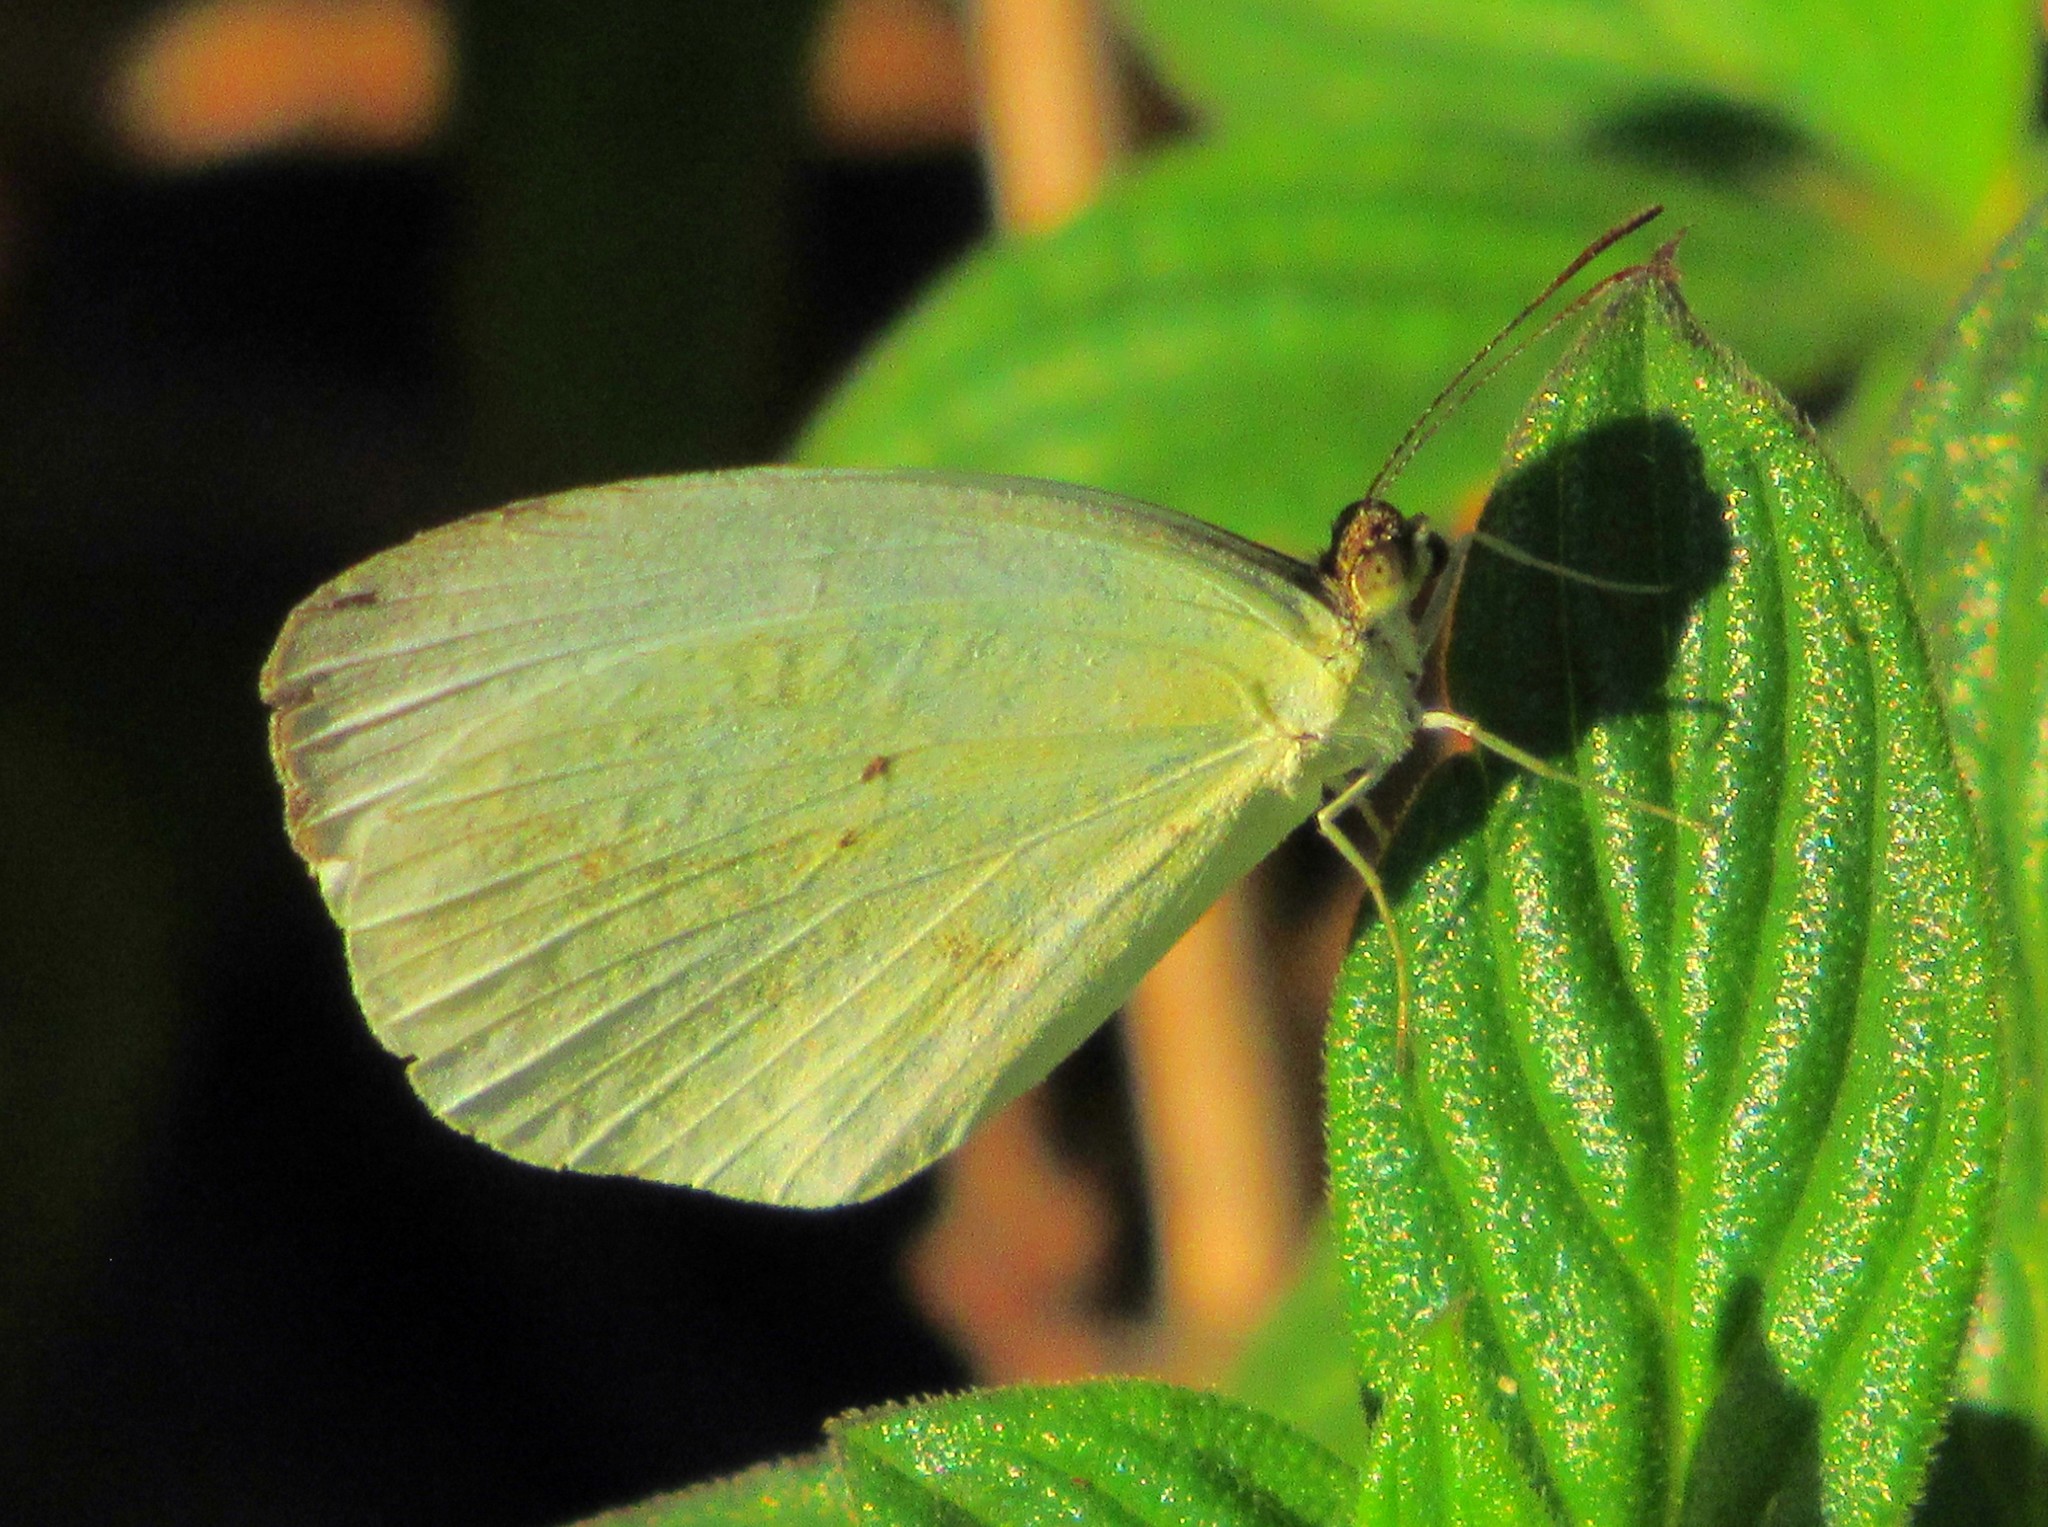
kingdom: Animalia
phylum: Arthropoda
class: Insecta
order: Lepidoptera
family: Pieridae
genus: Pyrisitia
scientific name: Pyrisitia nise
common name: Mimosa yellow
